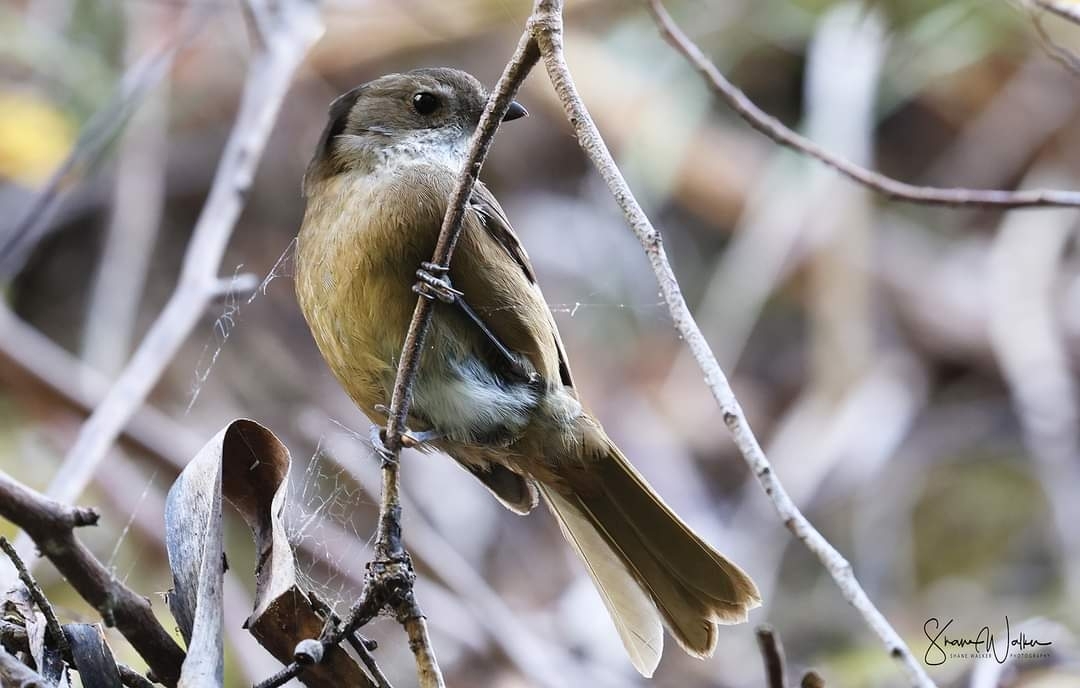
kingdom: Animalia
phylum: Chordata
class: Aves
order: Passeriformes
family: Pachycephalidae
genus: Pachycephala
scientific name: Pachycephala olivacea
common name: Olive whistler
